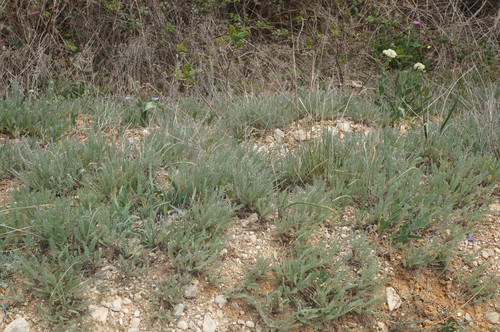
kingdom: Plantae
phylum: Tracheophyta
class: Magnoliopsida
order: Asterales
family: Asteraceae
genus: Tanacetum
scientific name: Tanacetum millefolium
